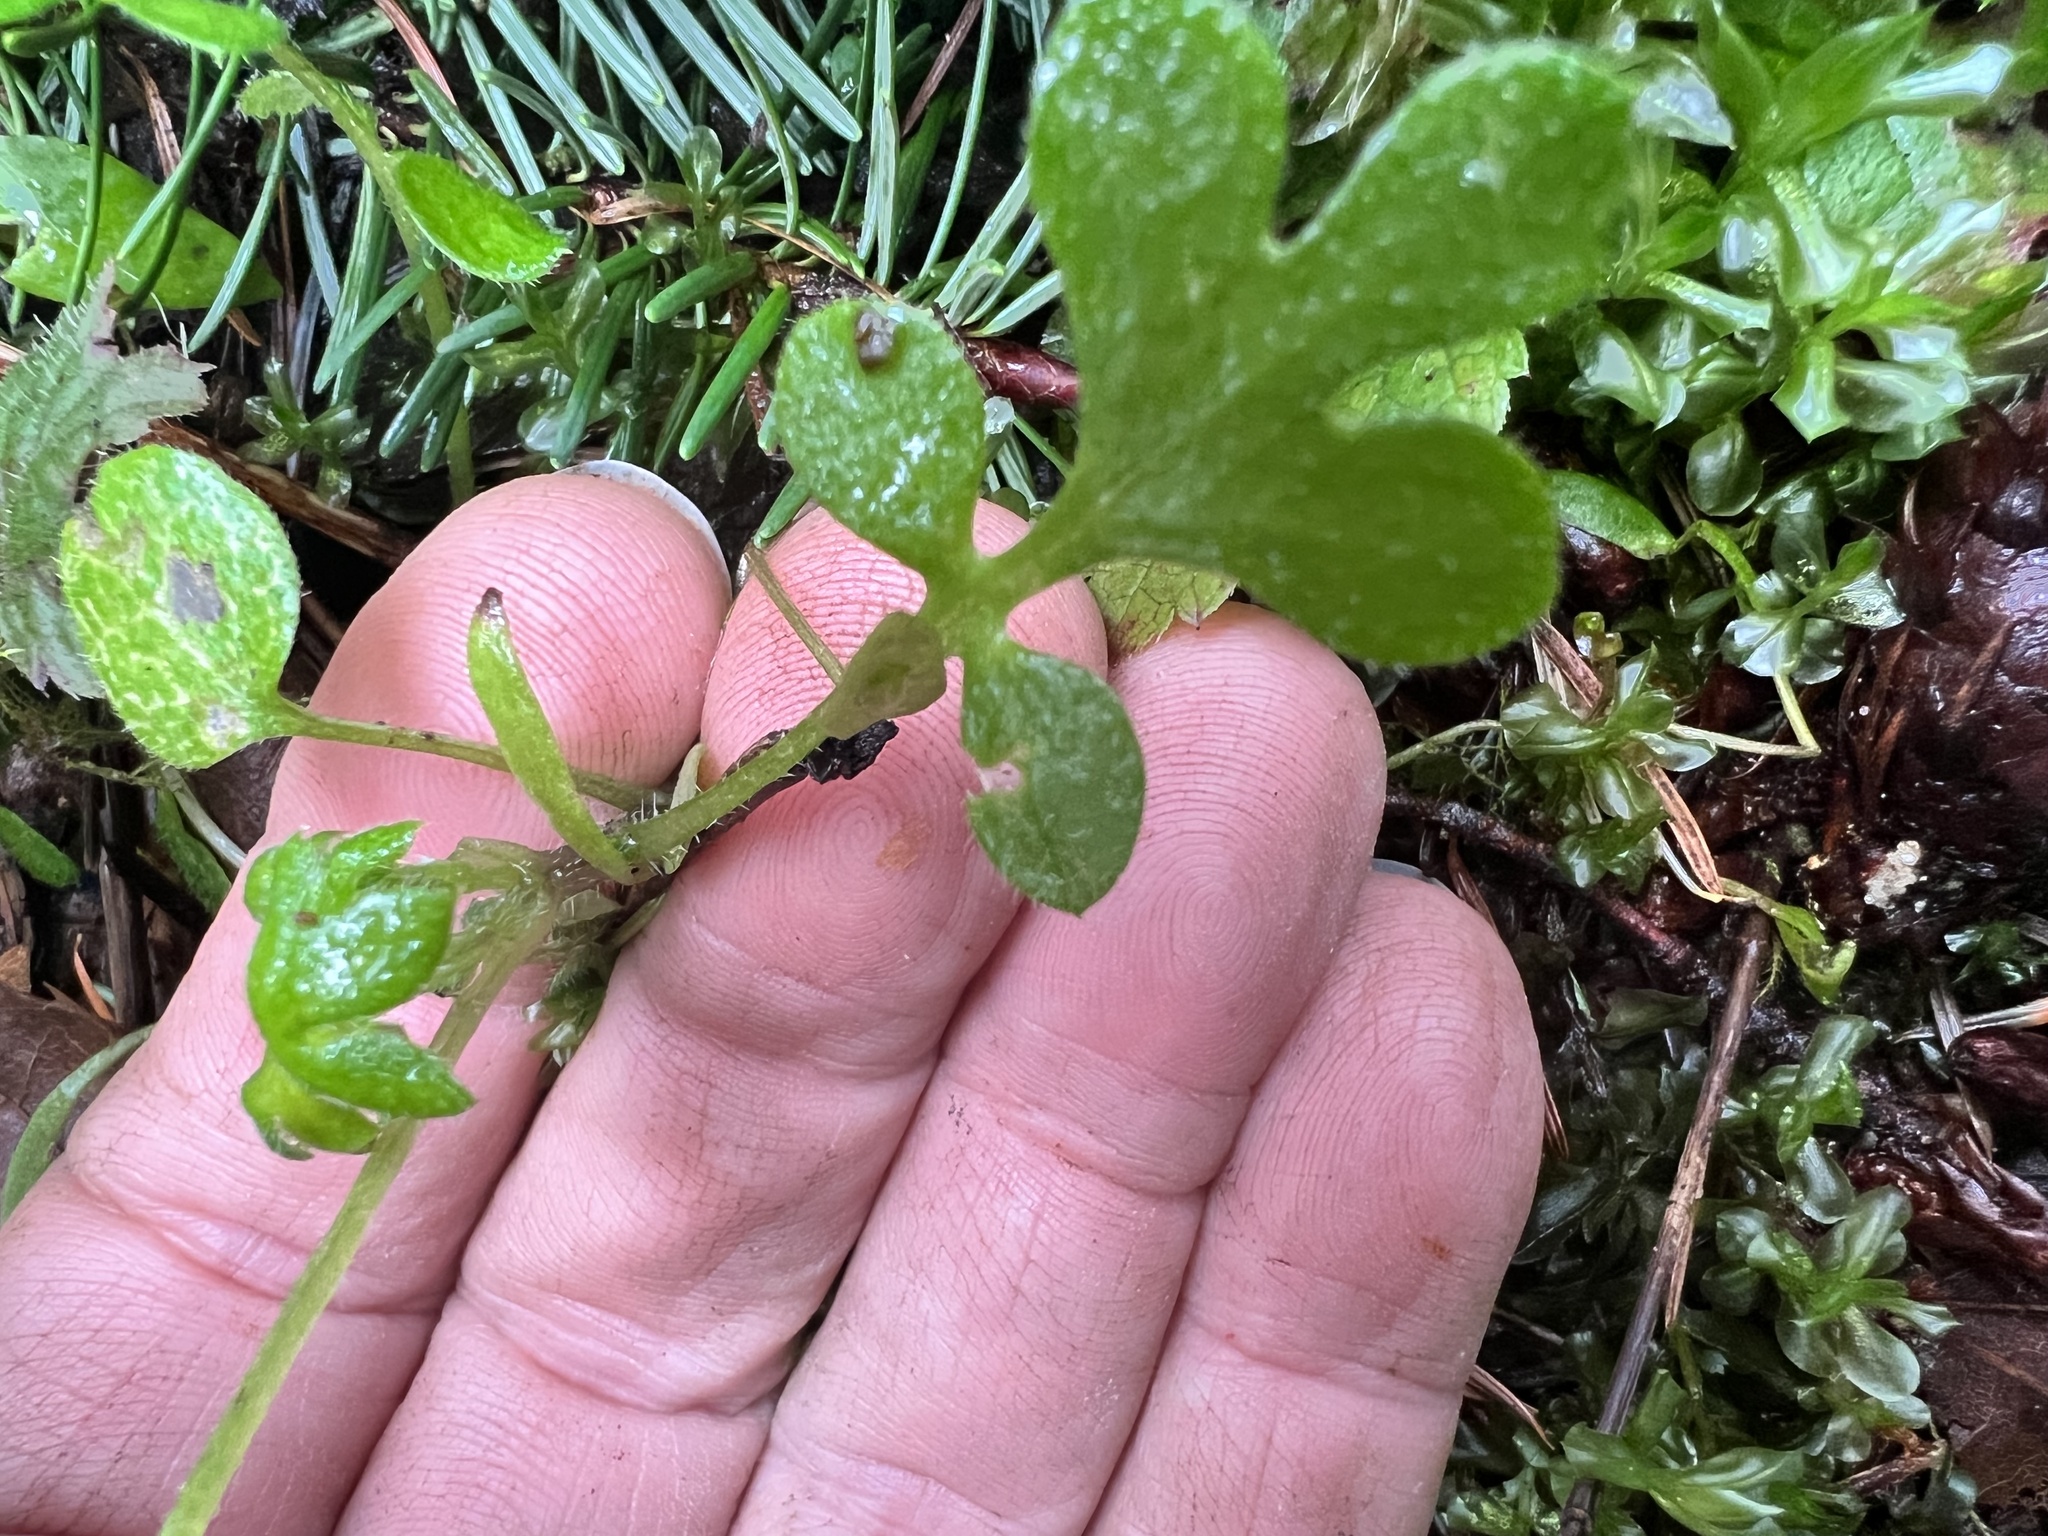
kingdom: Plantae
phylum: Tracheophyta
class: Magnoliopsida
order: Boraginales
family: Hydrophyllaceae
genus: Nemophila
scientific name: Nemophila parviflora
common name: Small-flowered baby-blue-eyes
